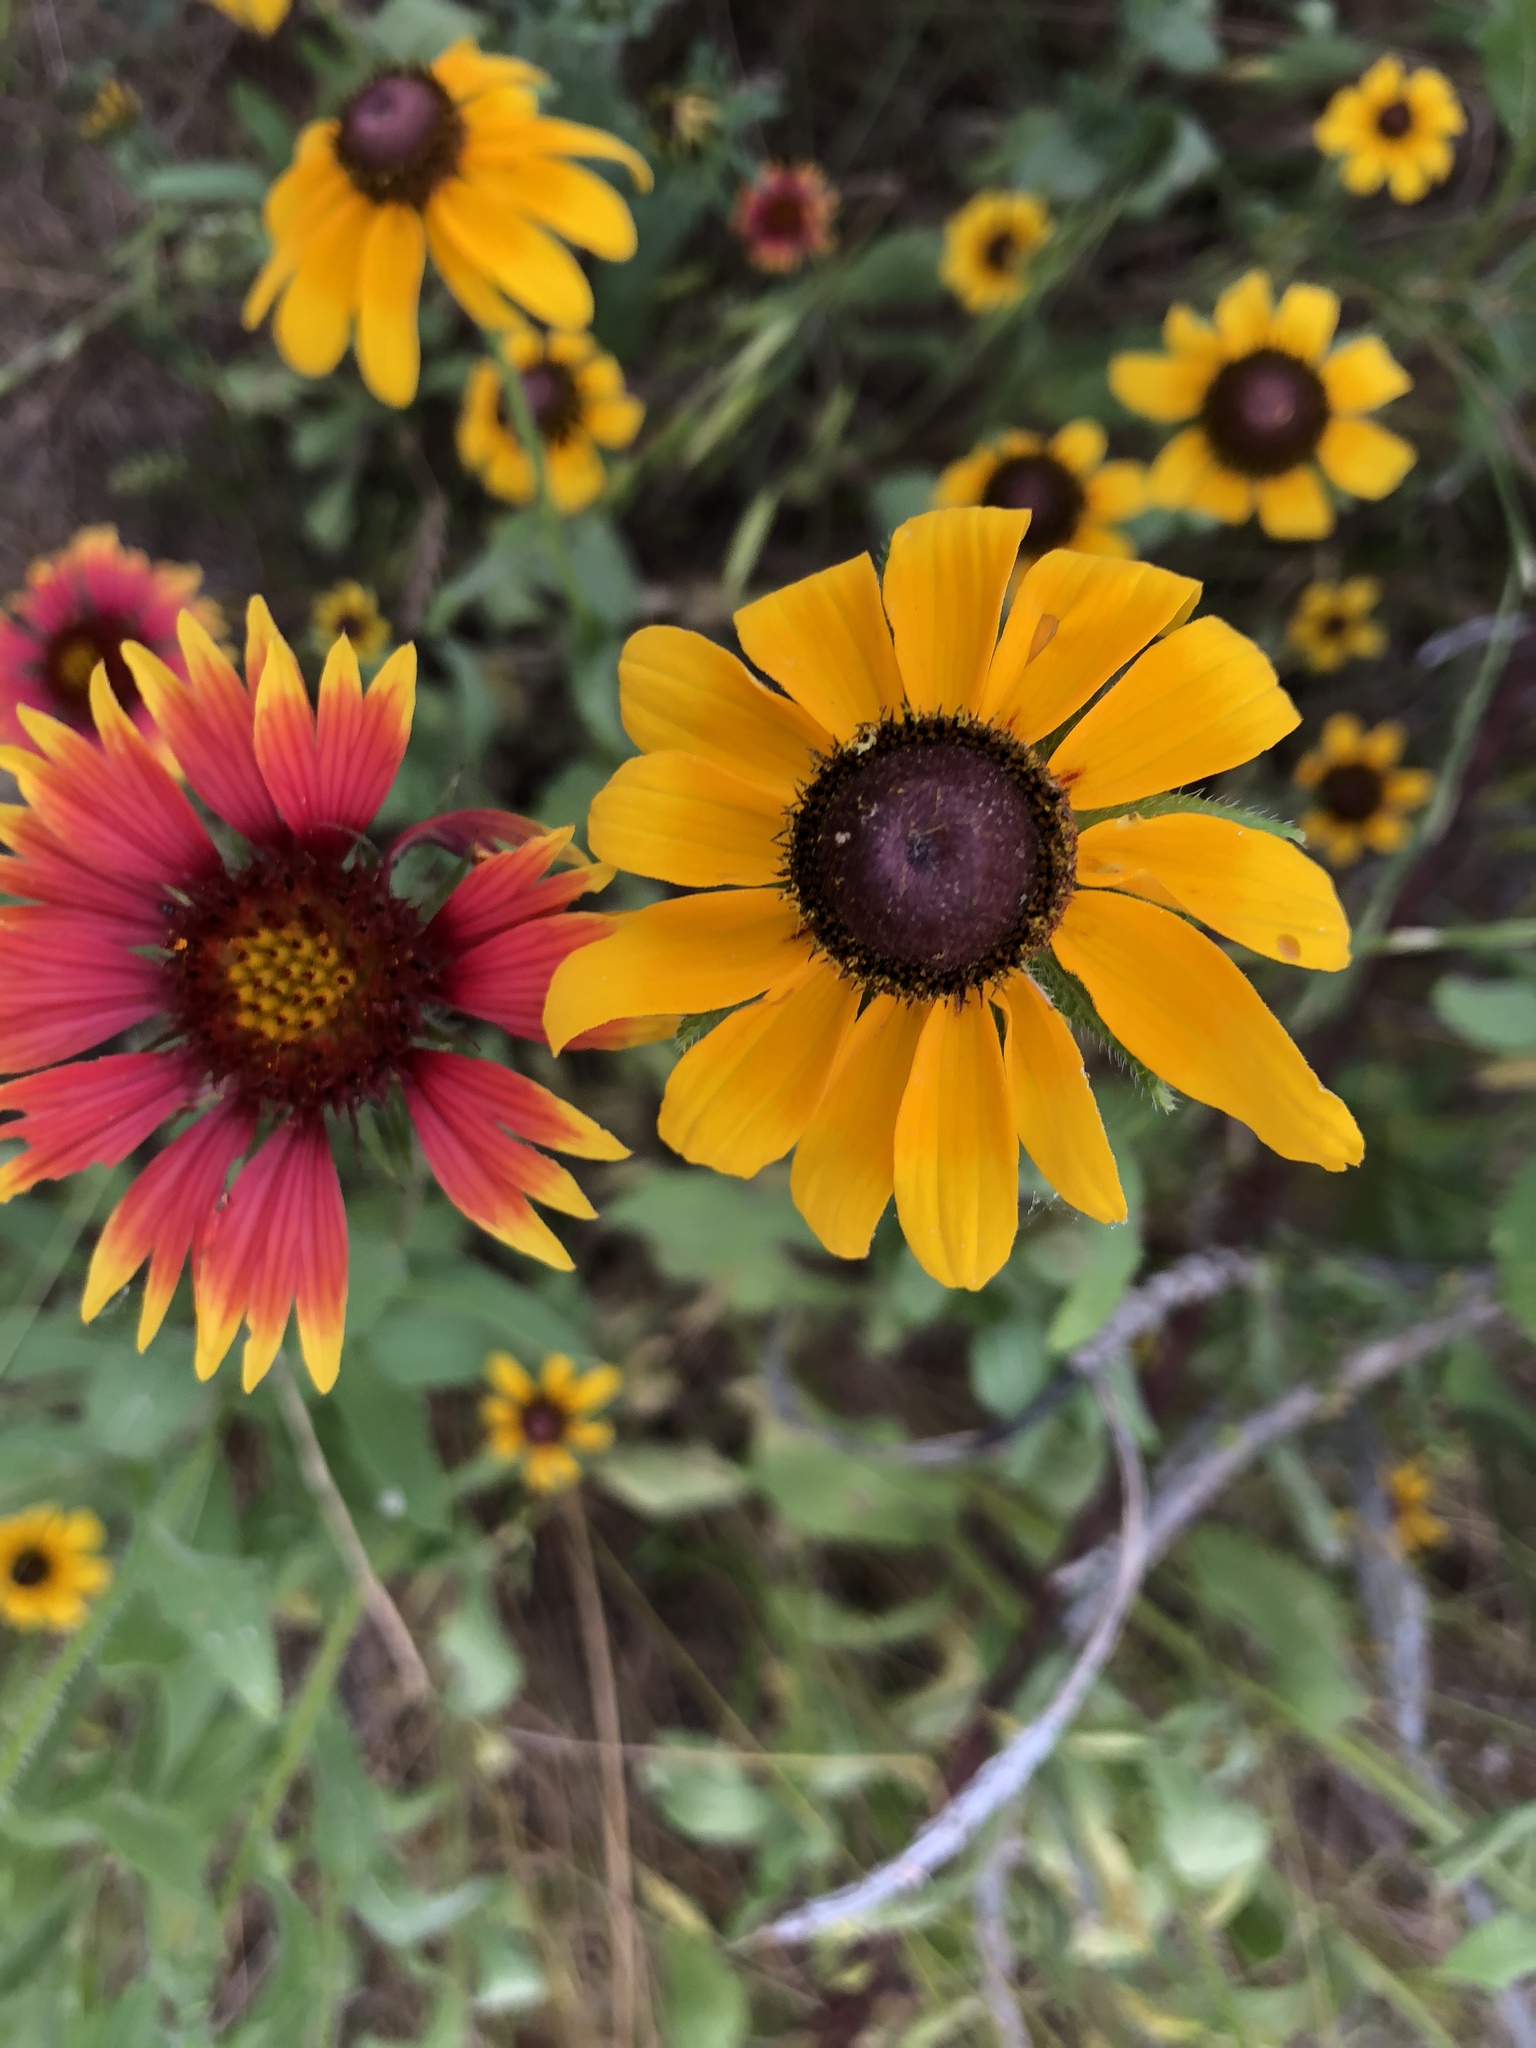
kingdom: Plantae
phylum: Tracheophyta
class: Magnoliopsida
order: Asterales
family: Asteraceae
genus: Rudbeckia
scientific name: Rudbeckia hirta
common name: Black-eyed-susan
